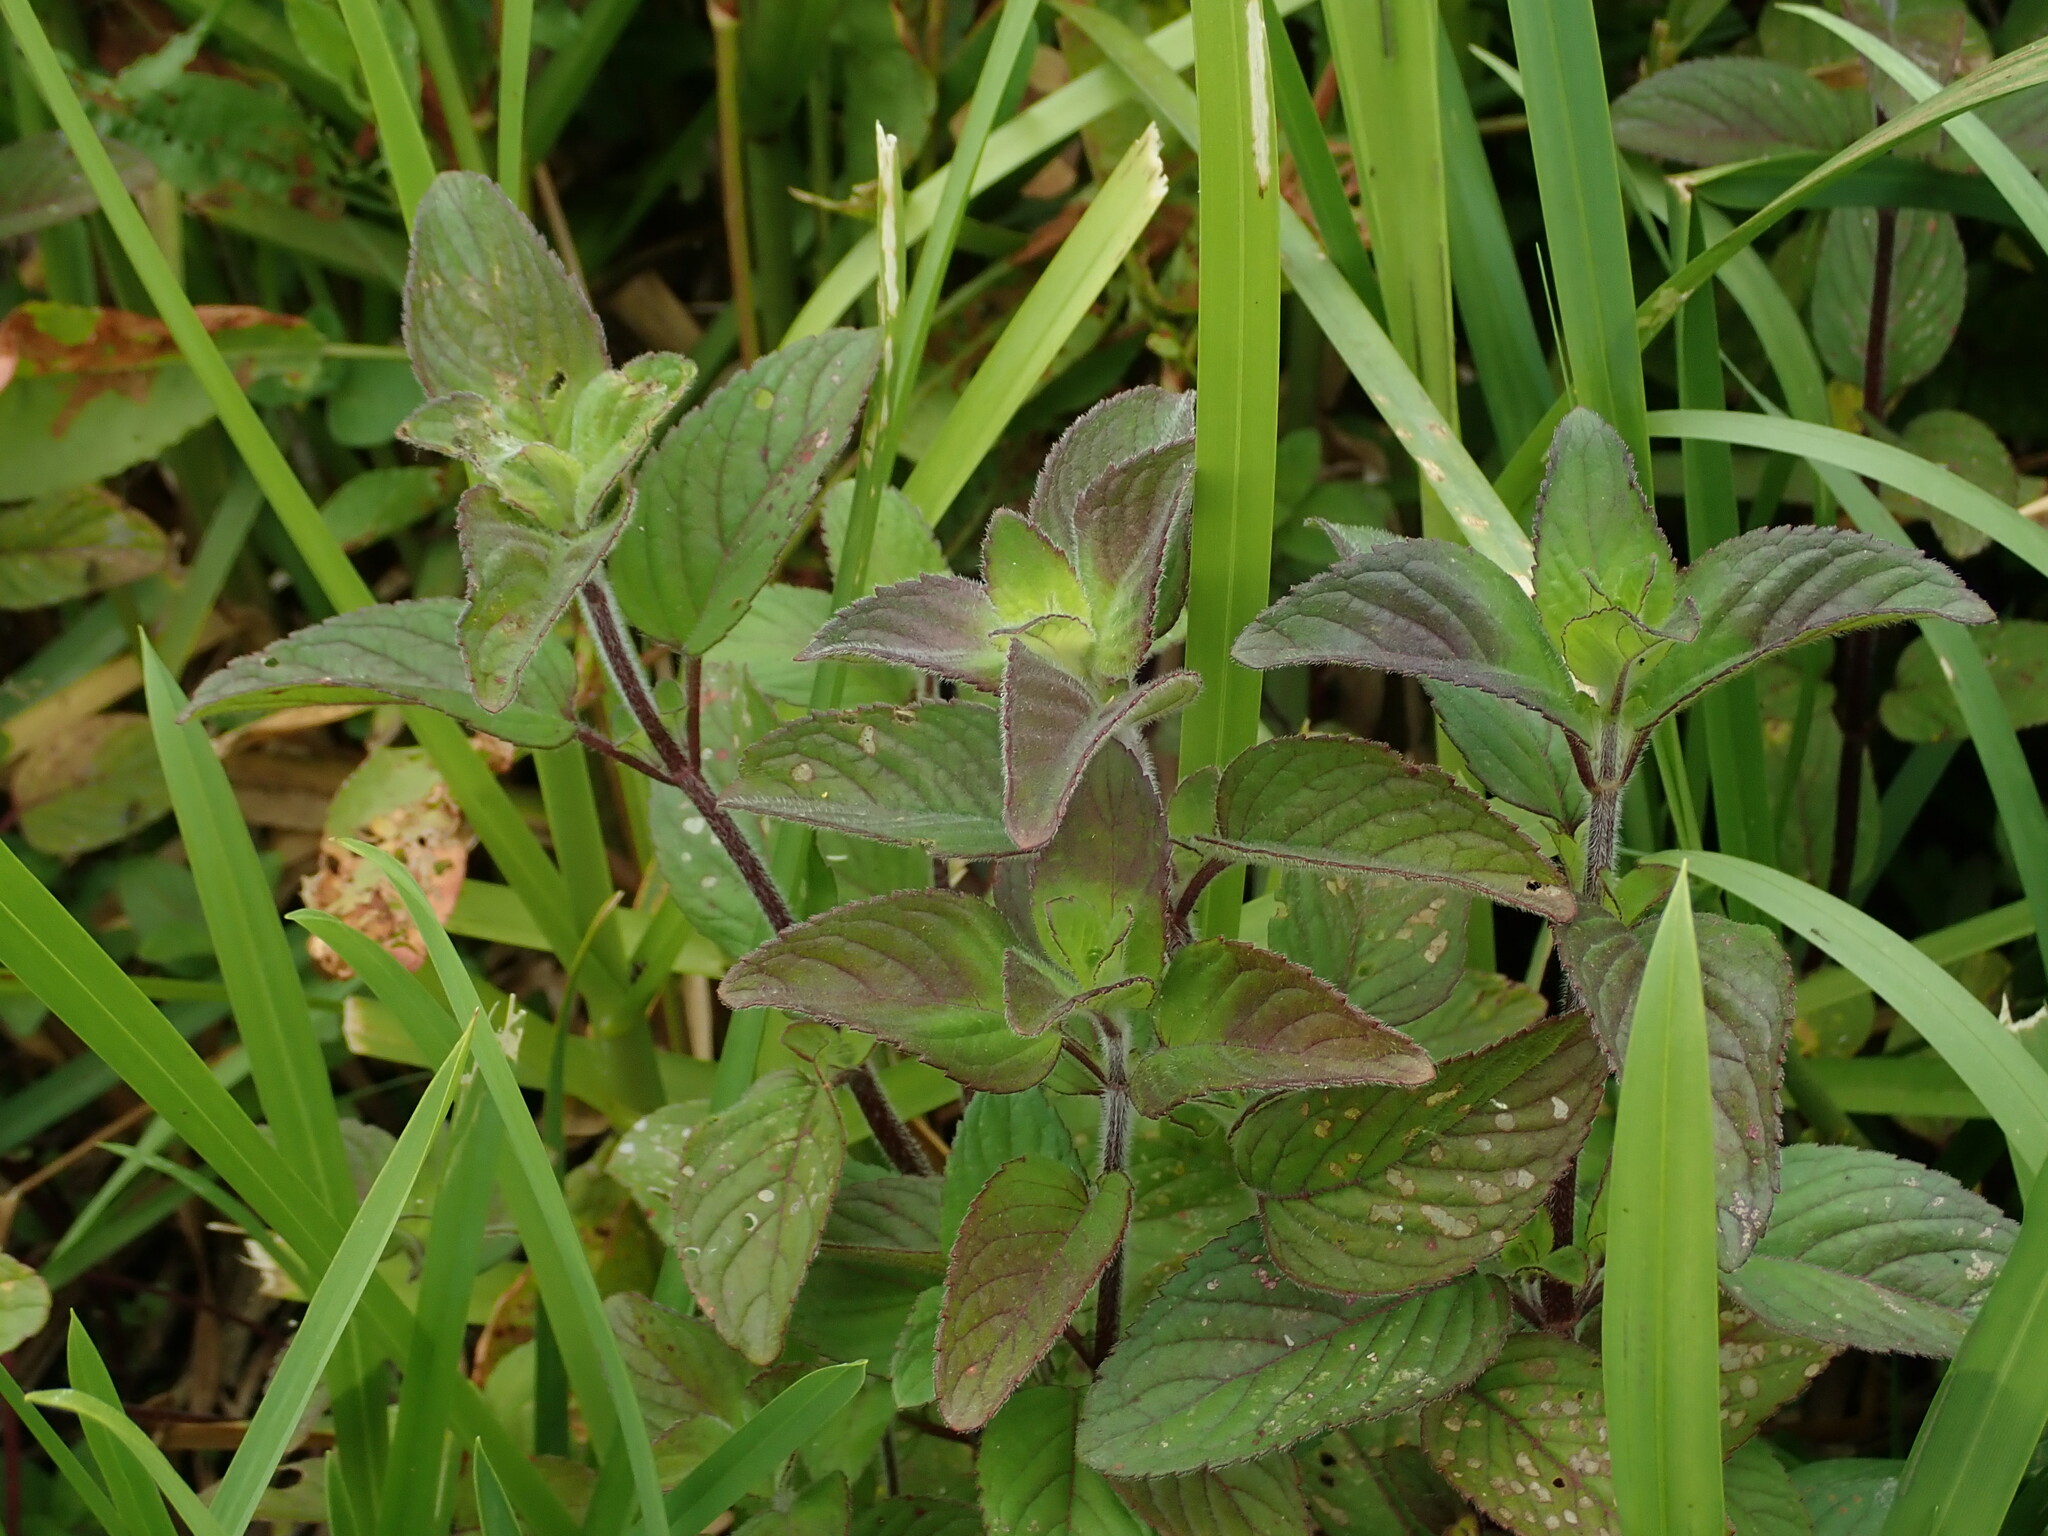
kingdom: Plantae
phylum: Tracheophyta
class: Magnoliopsida
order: Lamiales
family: Lamiaceae
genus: Mentha
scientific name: Mentha aquatica
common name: Water mint
